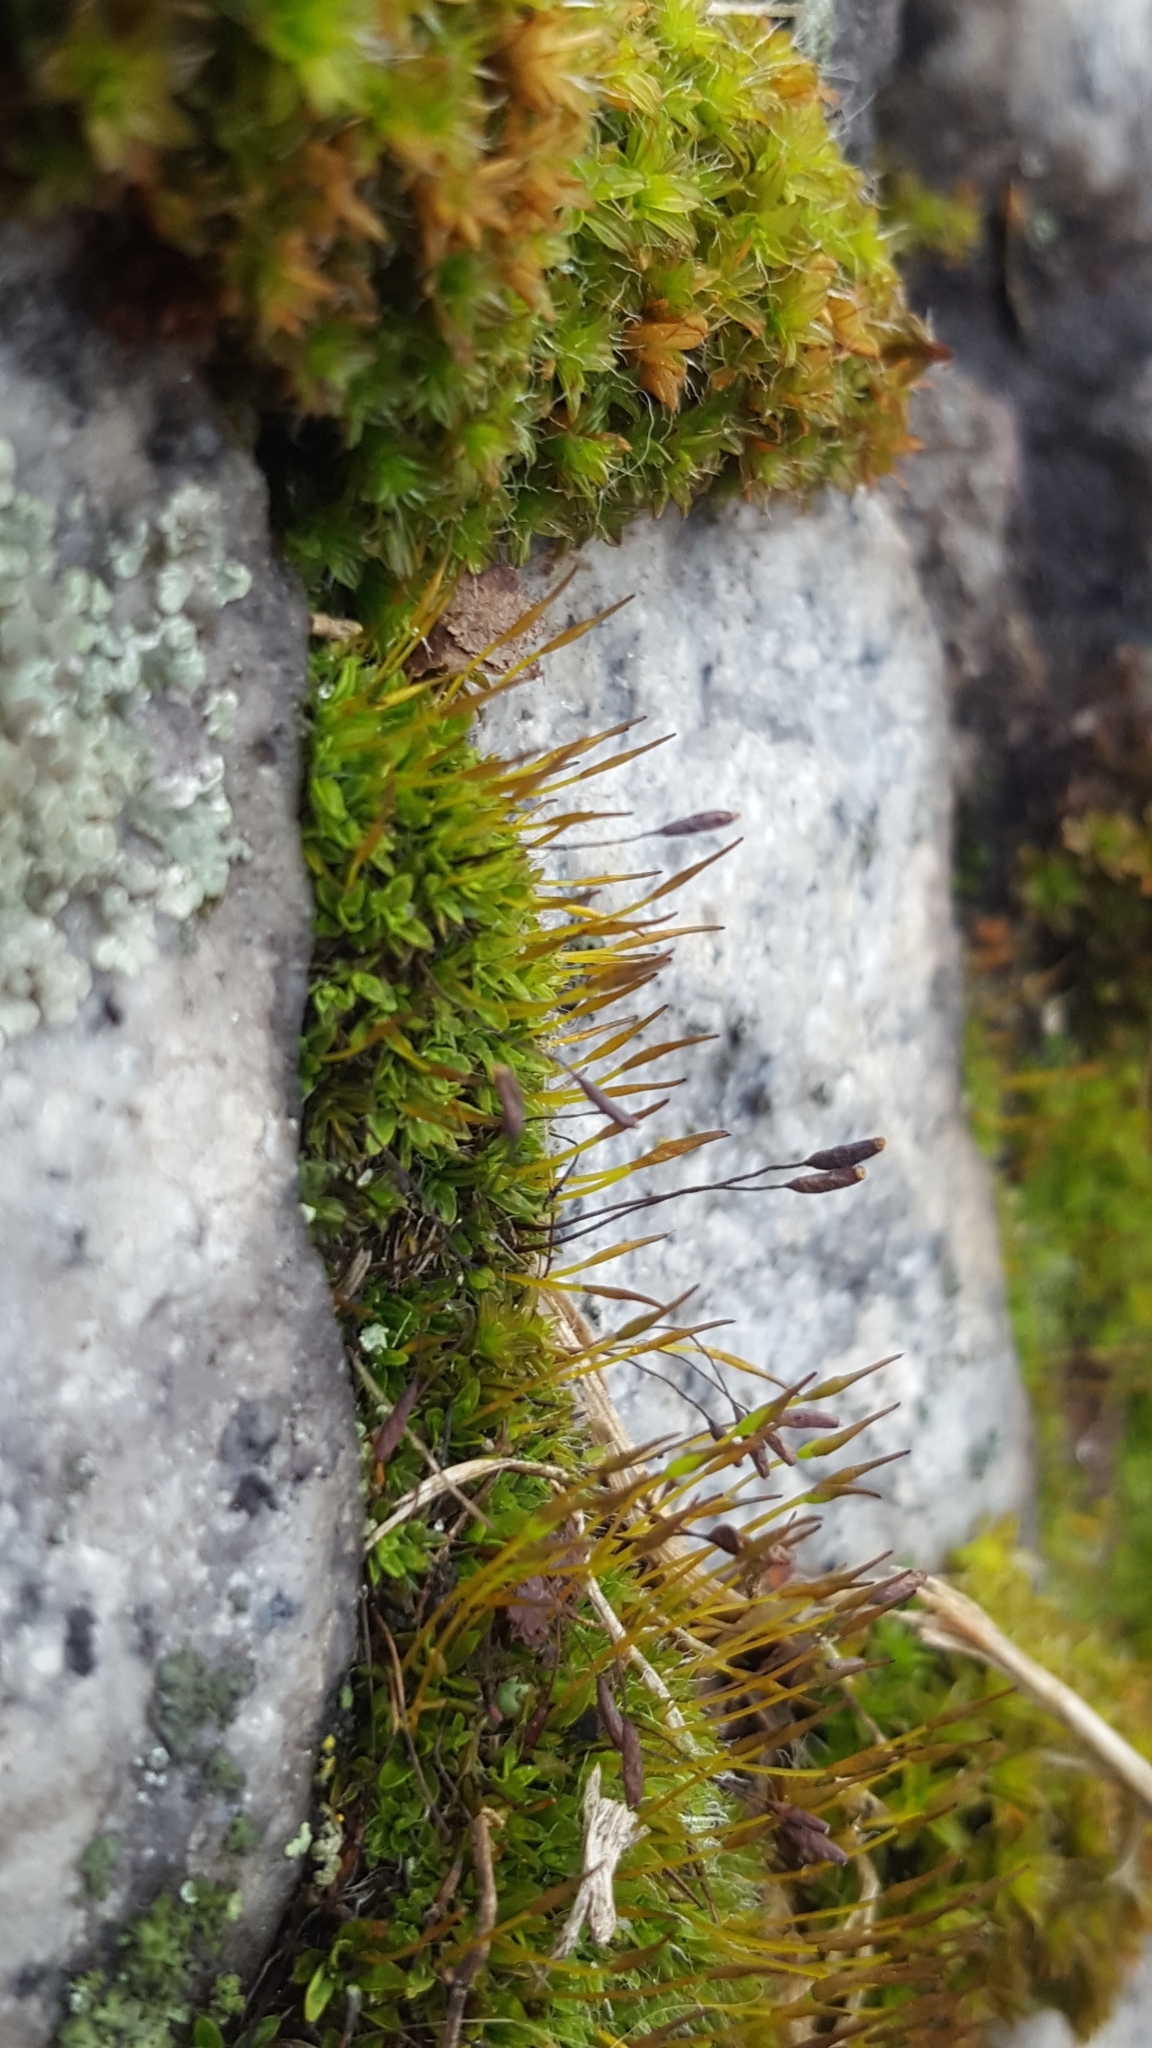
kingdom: Plantae
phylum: Bryophyta
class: Bryopsida
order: Pottiales
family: Pottiaceae
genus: Tortula
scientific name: Tortula muralis
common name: Wall screw-moss
